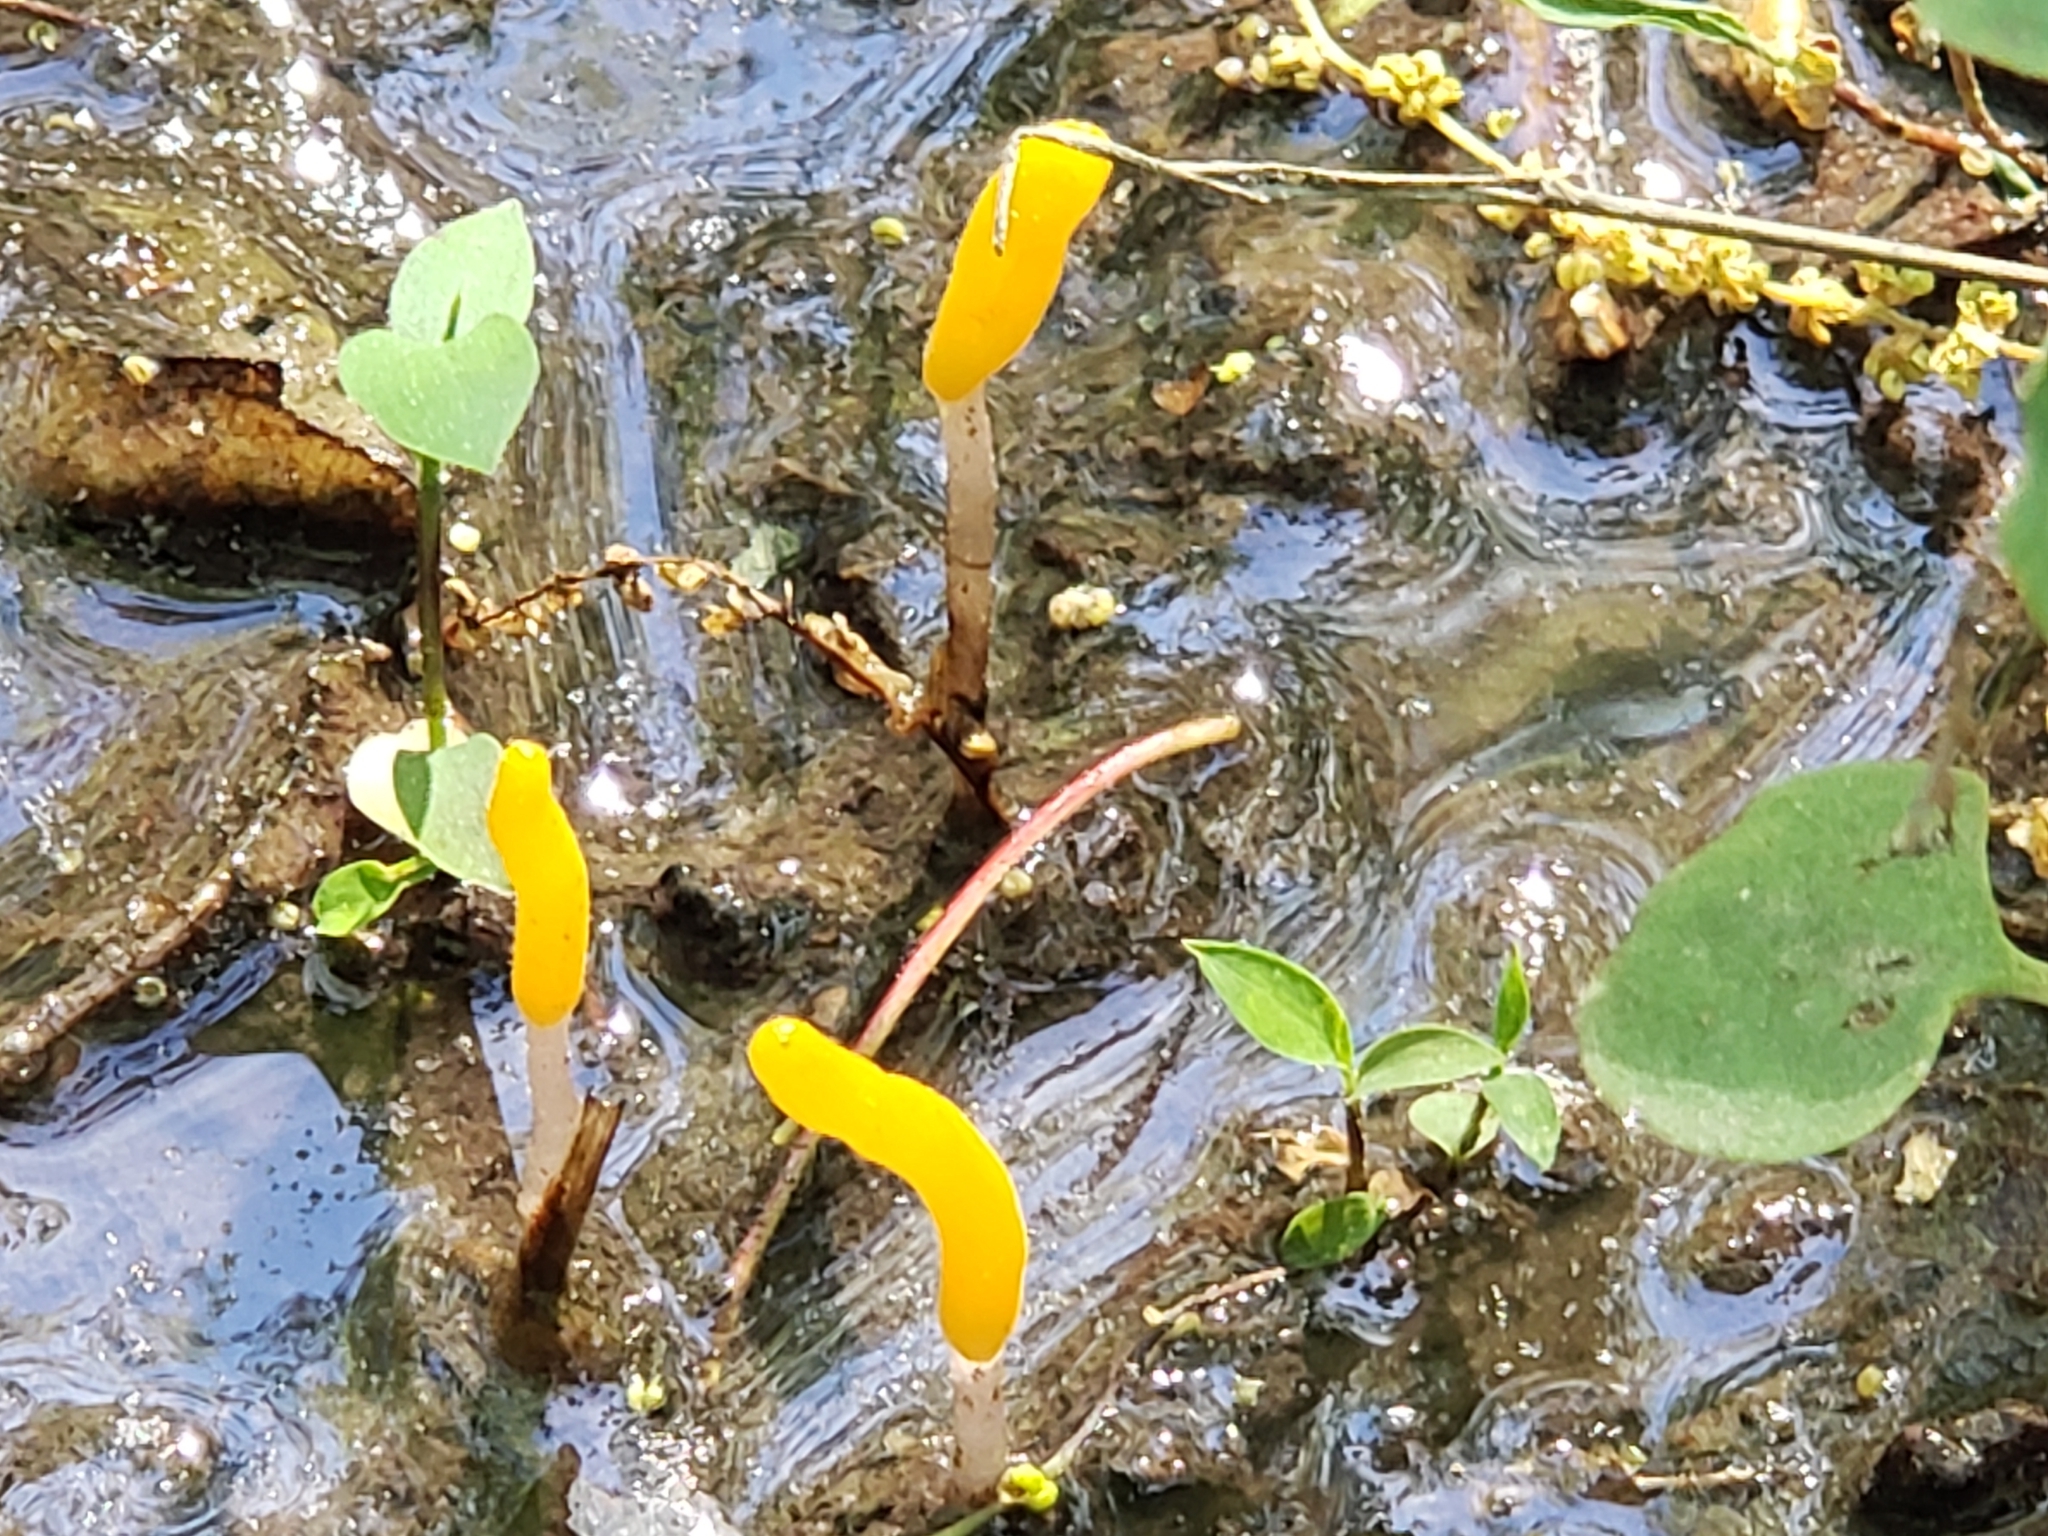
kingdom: Fungi
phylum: Ascomycota
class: Leotiomycetes
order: Helotiales
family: Sclerotiniaceae
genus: Mitrula
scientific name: Mitrula elegans
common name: Swamp beacon
